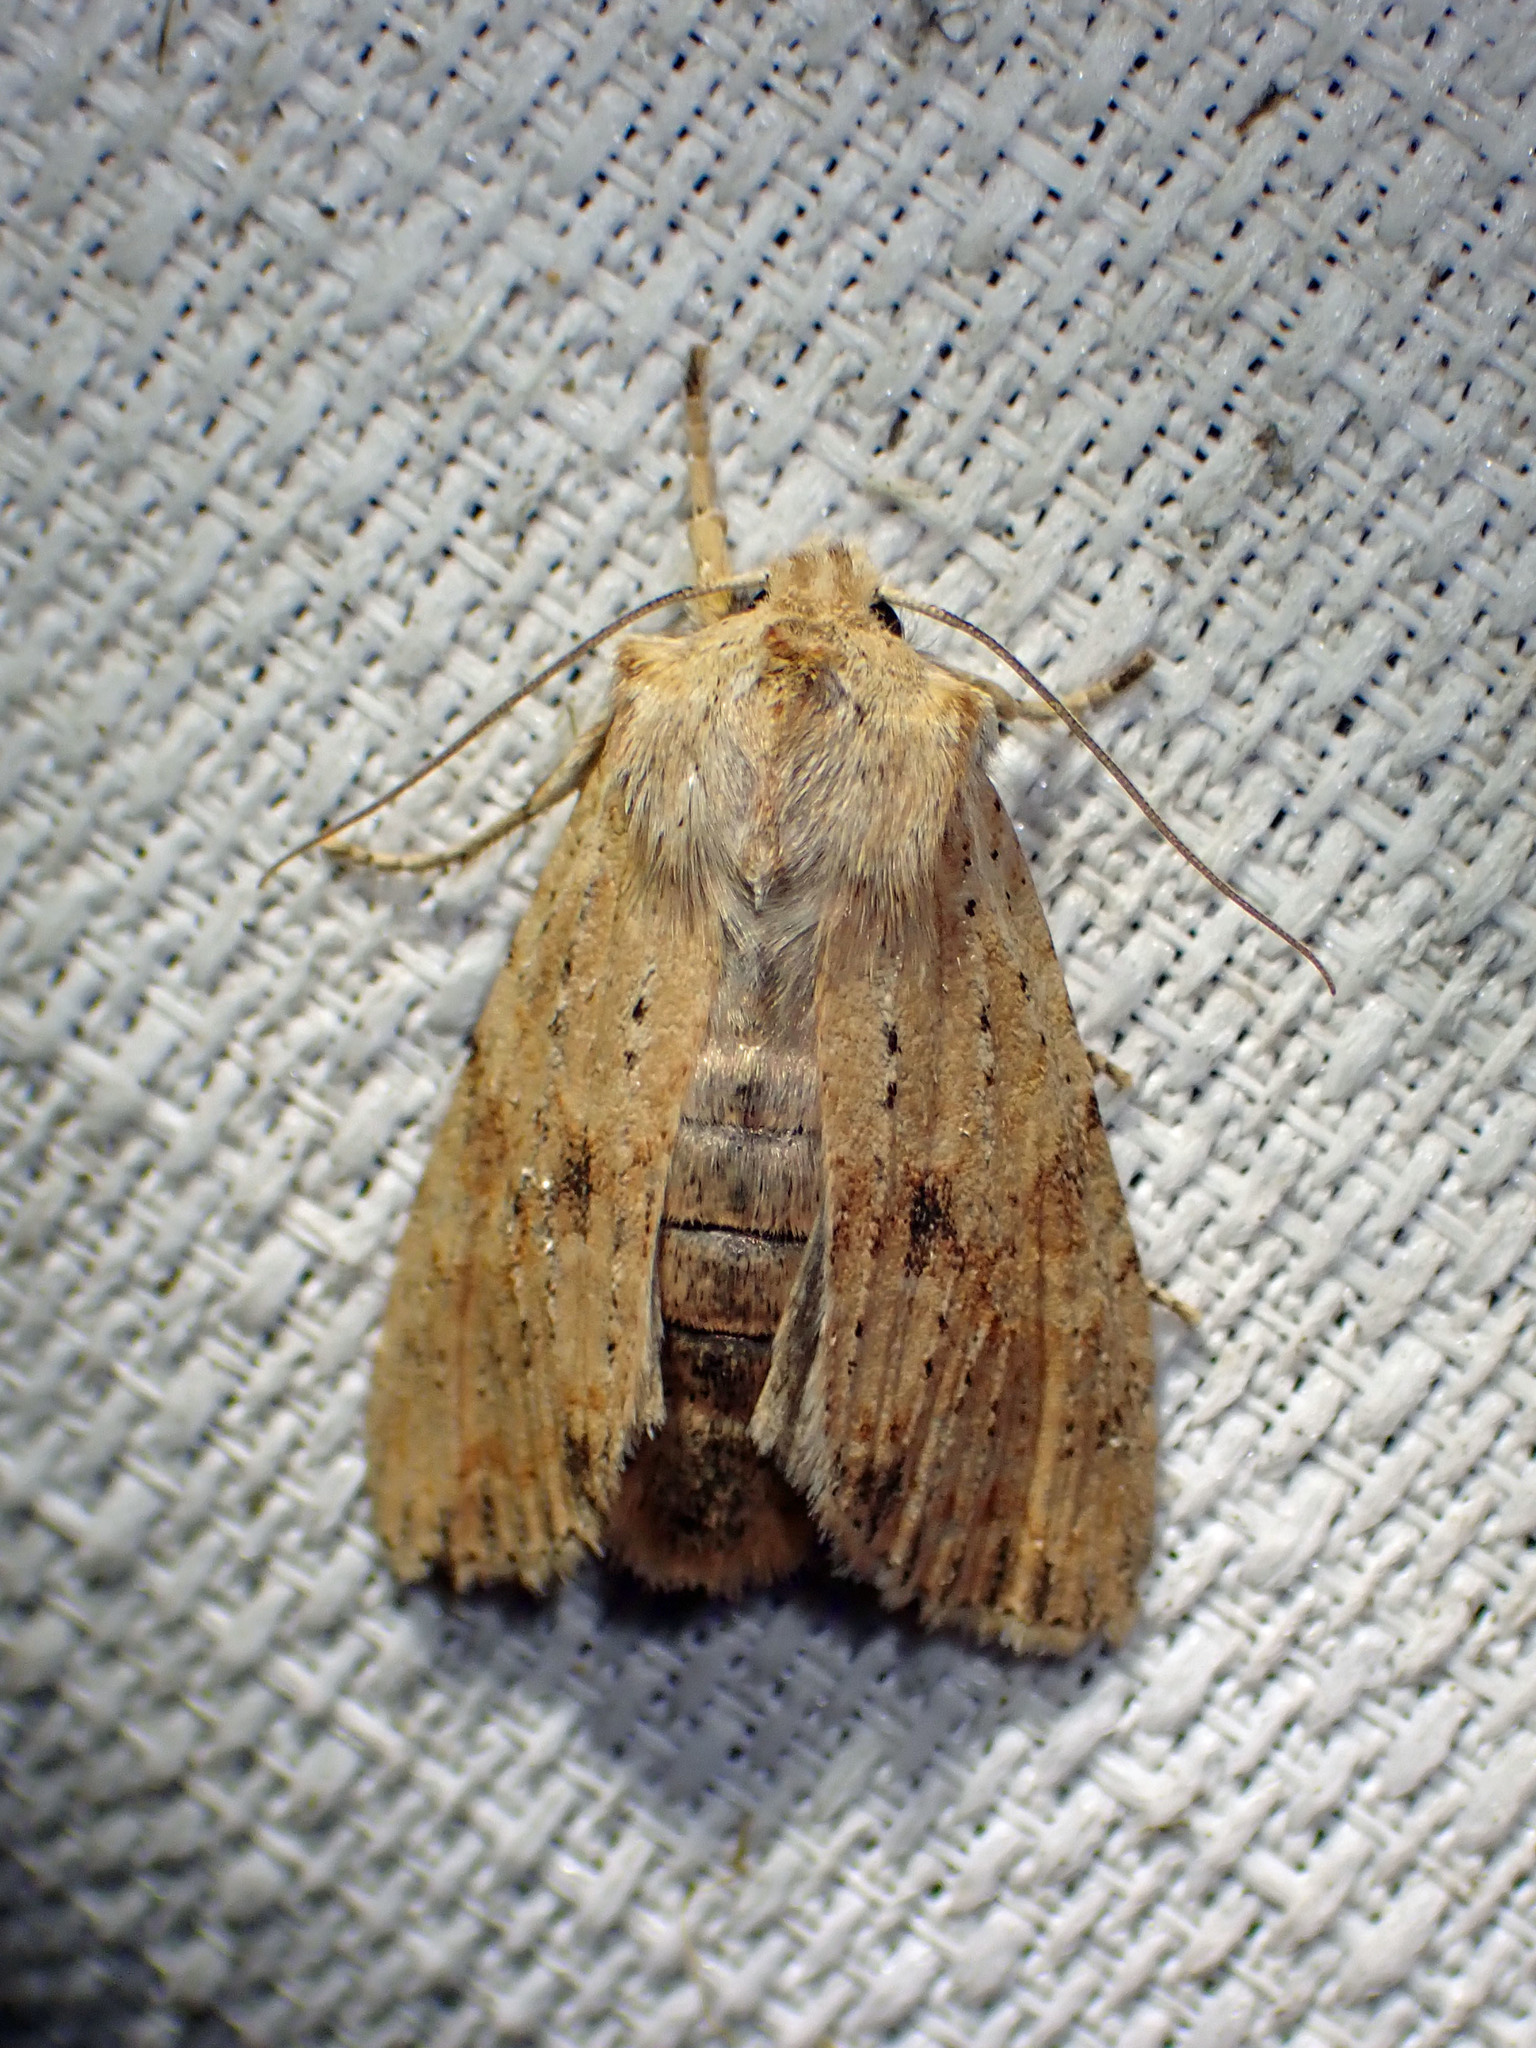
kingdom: Animalia
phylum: Arthropoda
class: Insecta
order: Lepidoptera
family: Noctuidae
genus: Lithophane
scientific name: Lithophane innominata
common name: Nameless pinion moth
